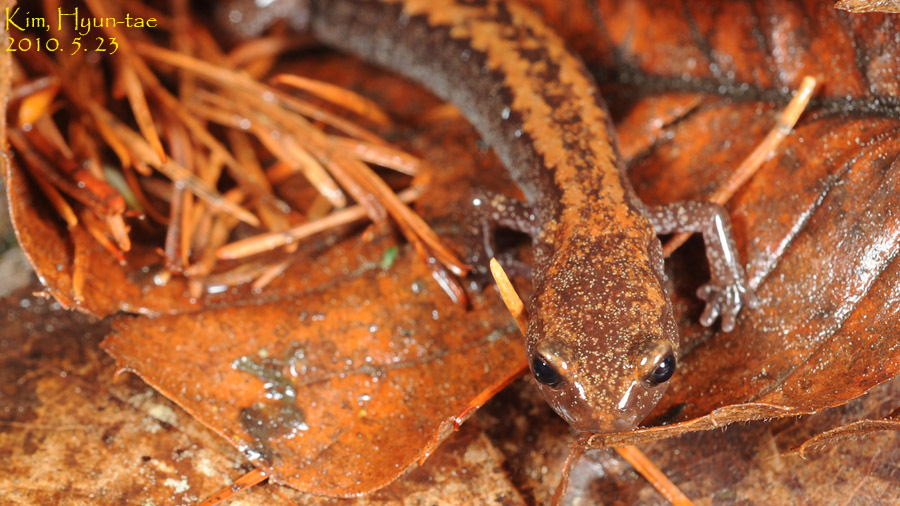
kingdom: Animalia
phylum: Chordata
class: Amphibia
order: Caudata
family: Plethodontidae
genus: Karsenia
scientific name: Karsenia koreana
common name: Korean crevice salamander
